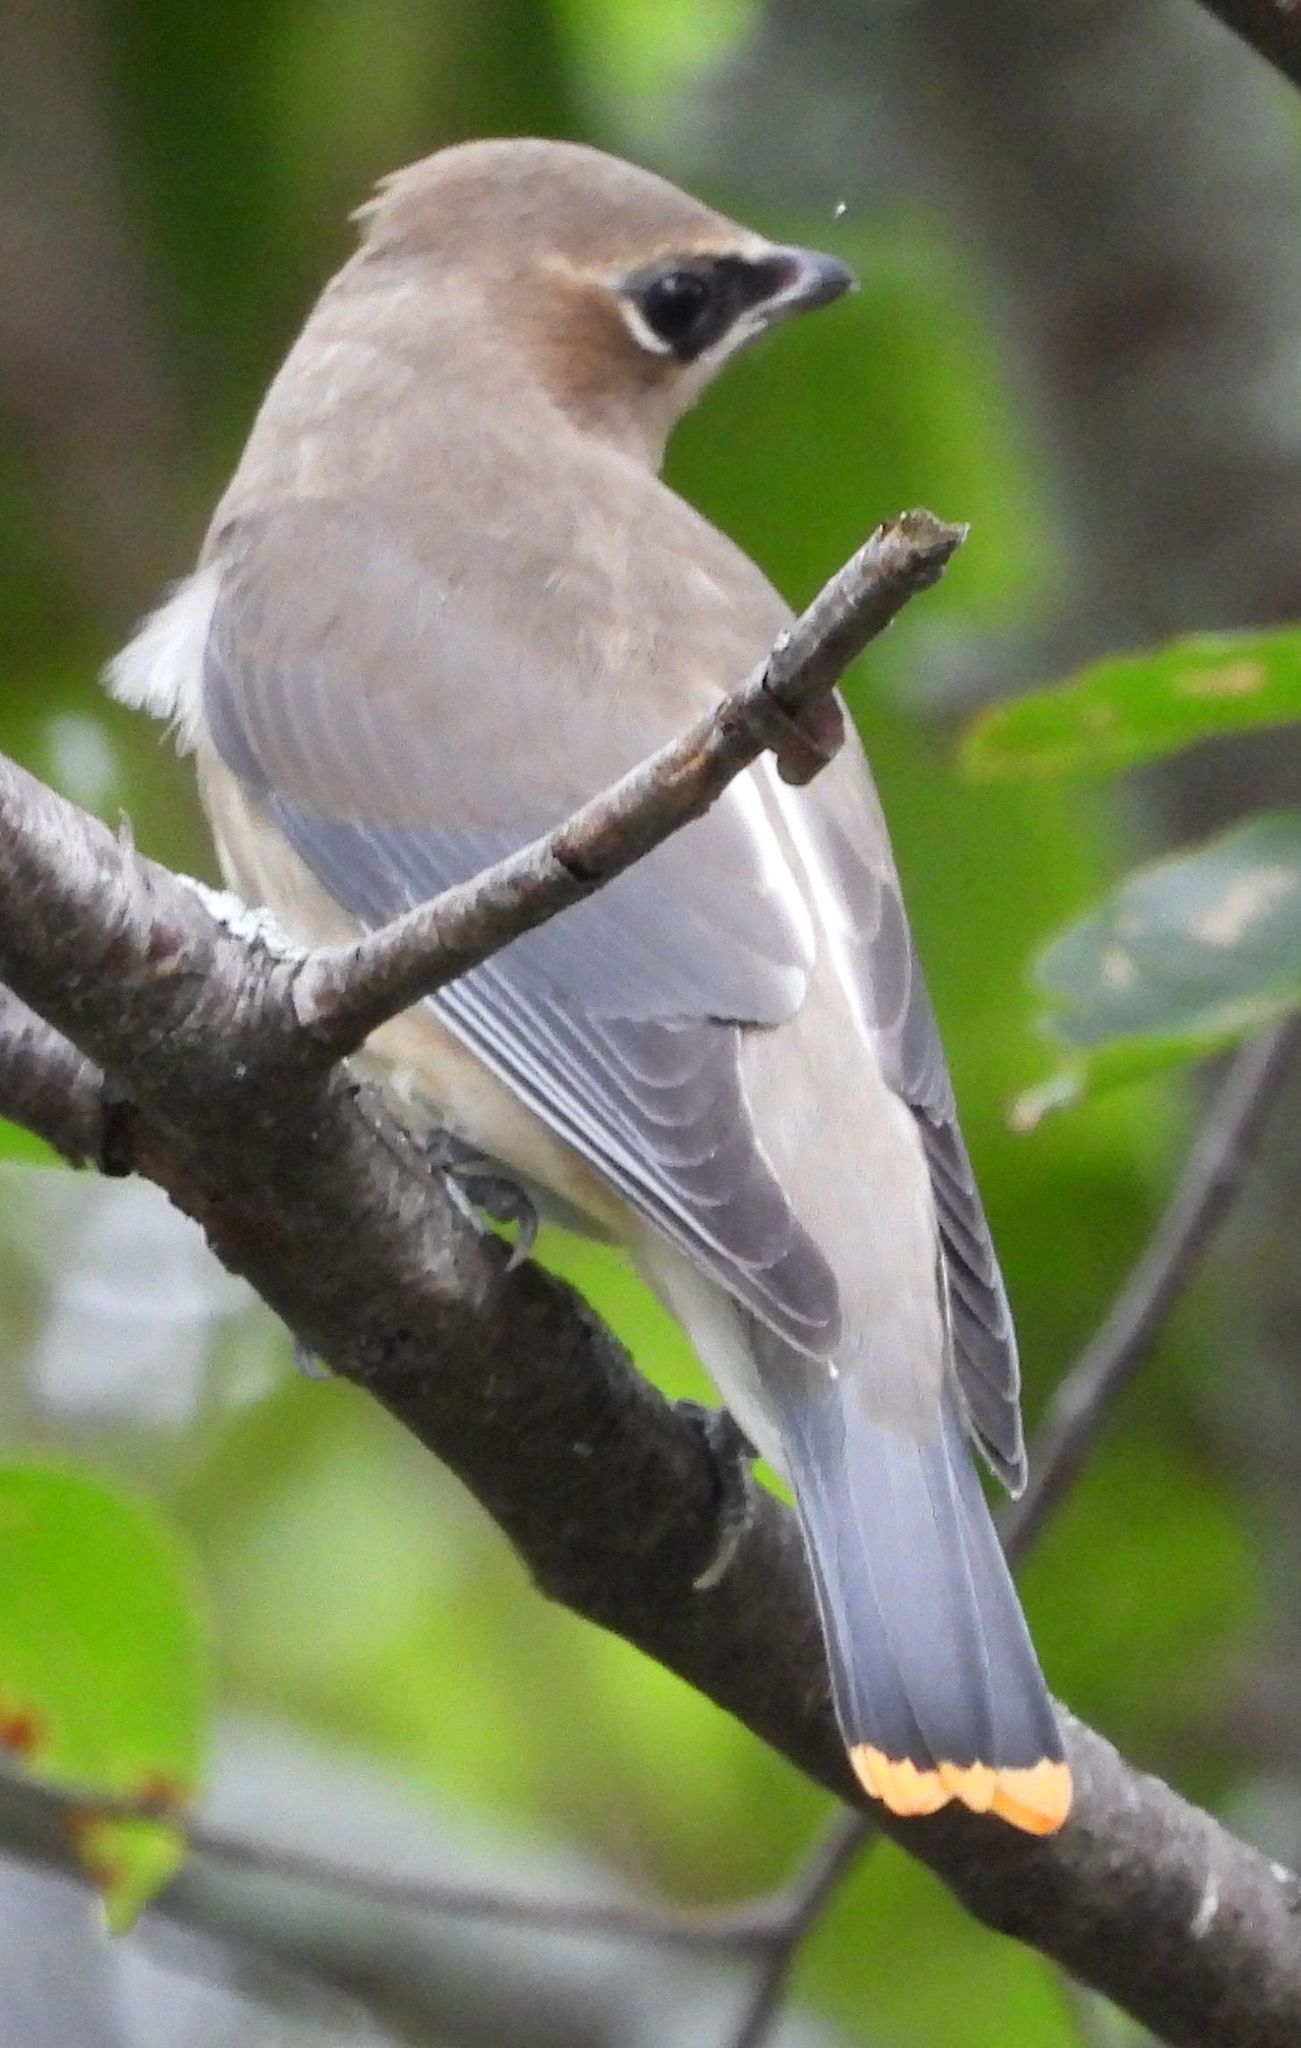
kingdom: Animalia
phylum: Chordata
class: Aves
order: Passeriformes
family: Bombycillidae
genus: Bombycilla
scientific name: Bombycilla cedrorum
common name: Cedar waxwing
